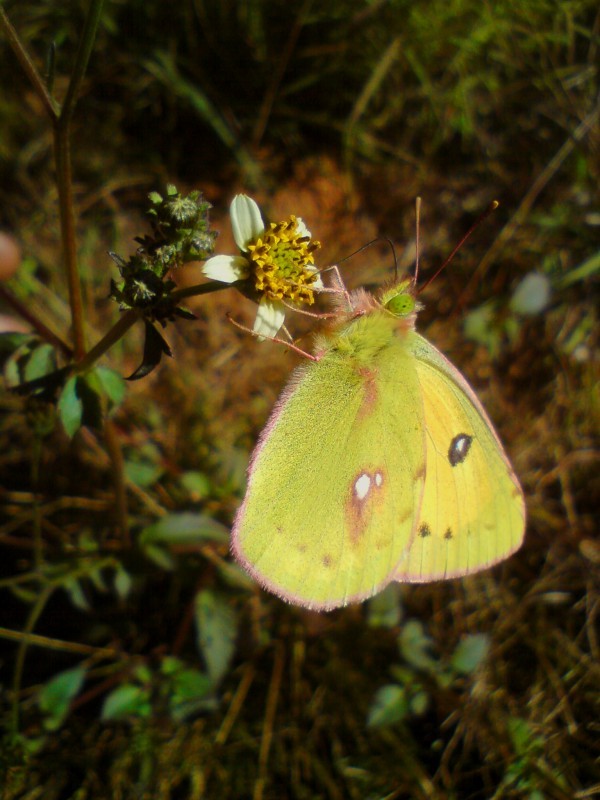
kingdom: Animalia
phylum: Arthropoda
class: Insecta
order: Lepidoptera
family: Pieridae
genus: Colias
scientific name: Colias fieldii
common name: Dark clouded yellow
